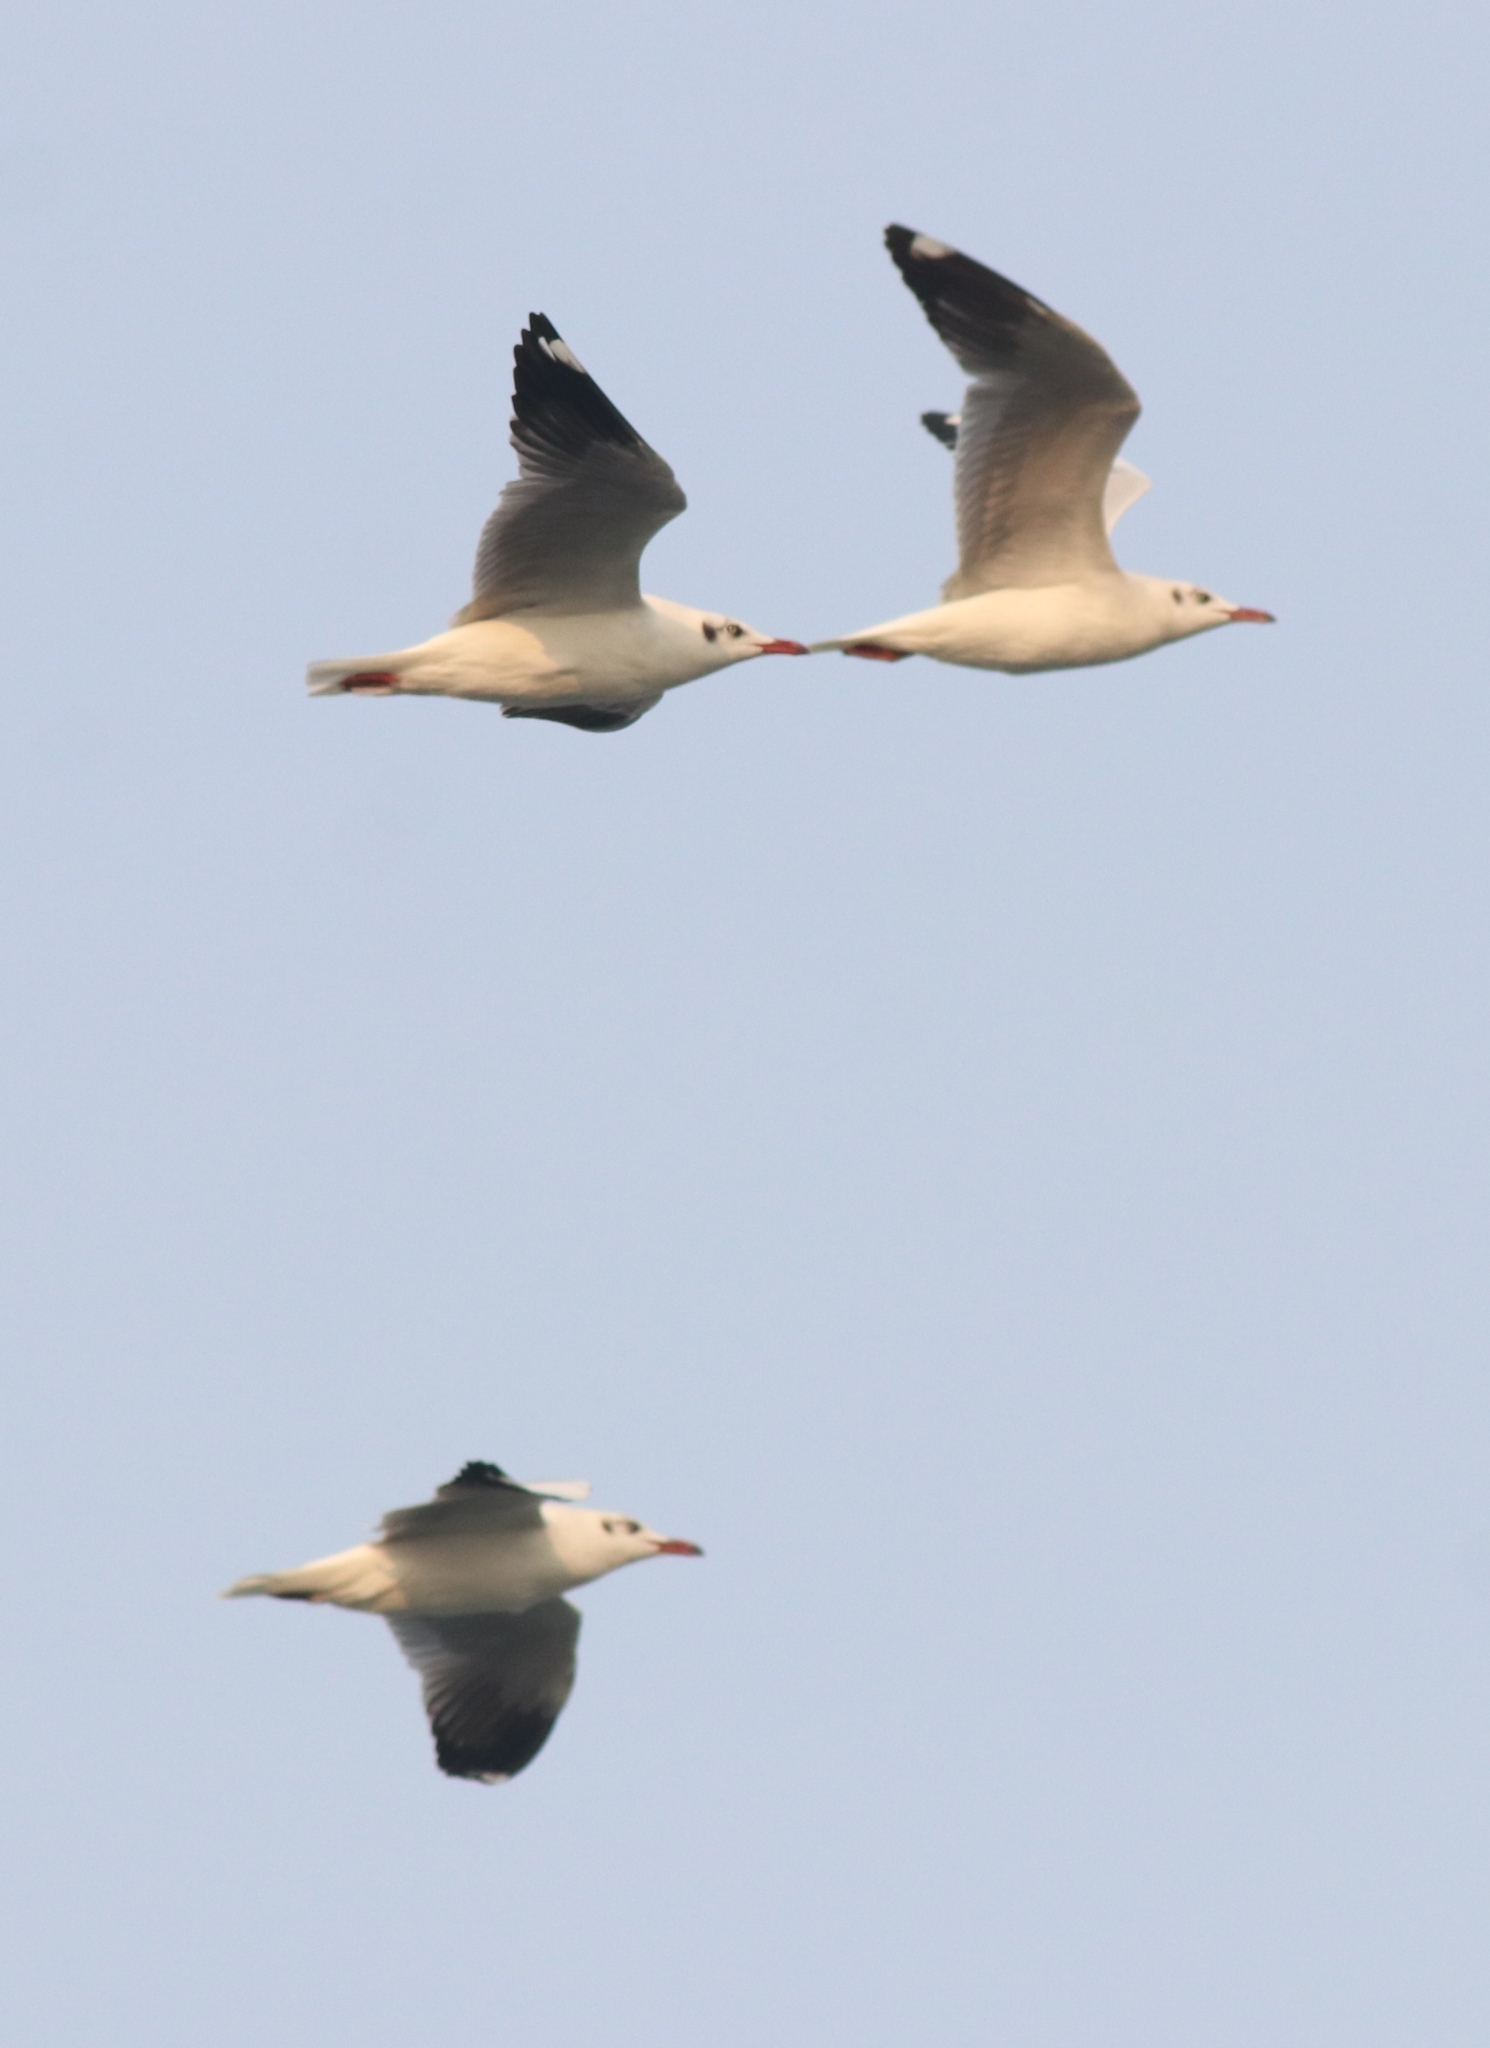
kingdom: Animalia
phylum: Chordata
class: Aves
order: Charadriiformes
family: Laridae
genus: Chroicocephalus
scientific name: Chroicocephalus brunnicephalus
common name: Brown-headed gull
